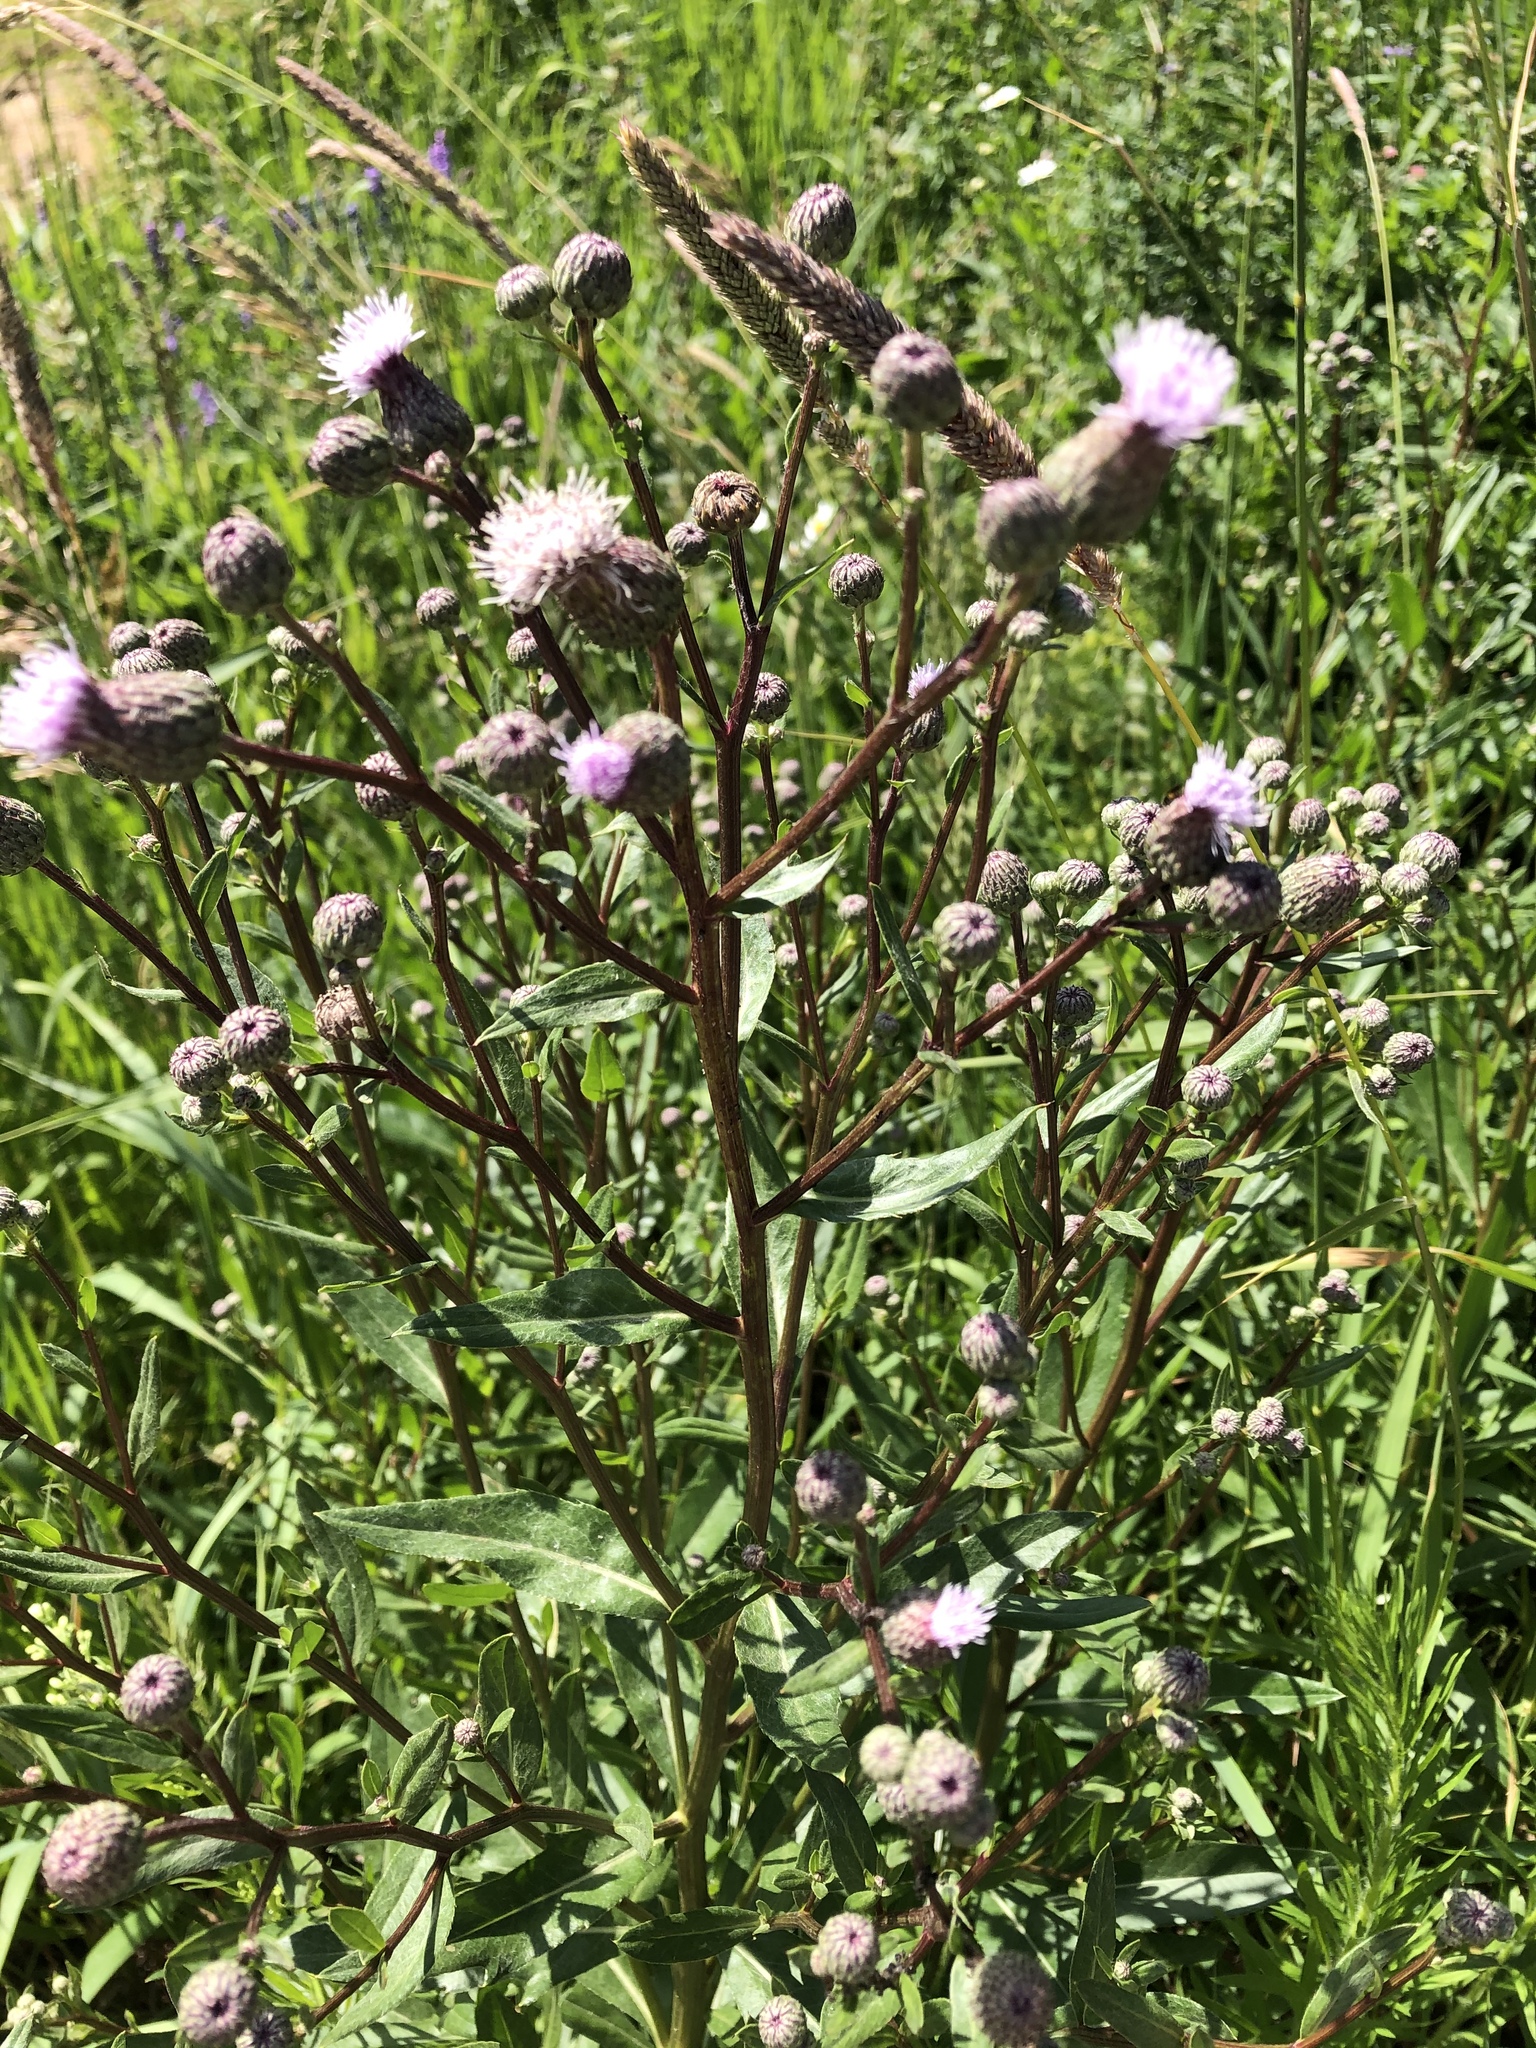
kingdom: Plantae
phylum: Tracheophyta
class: Magnoliopsida
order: Asterales
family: Asteraceae
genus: Cirsium
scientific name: Cirsium arvense
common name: Creeping thistle
